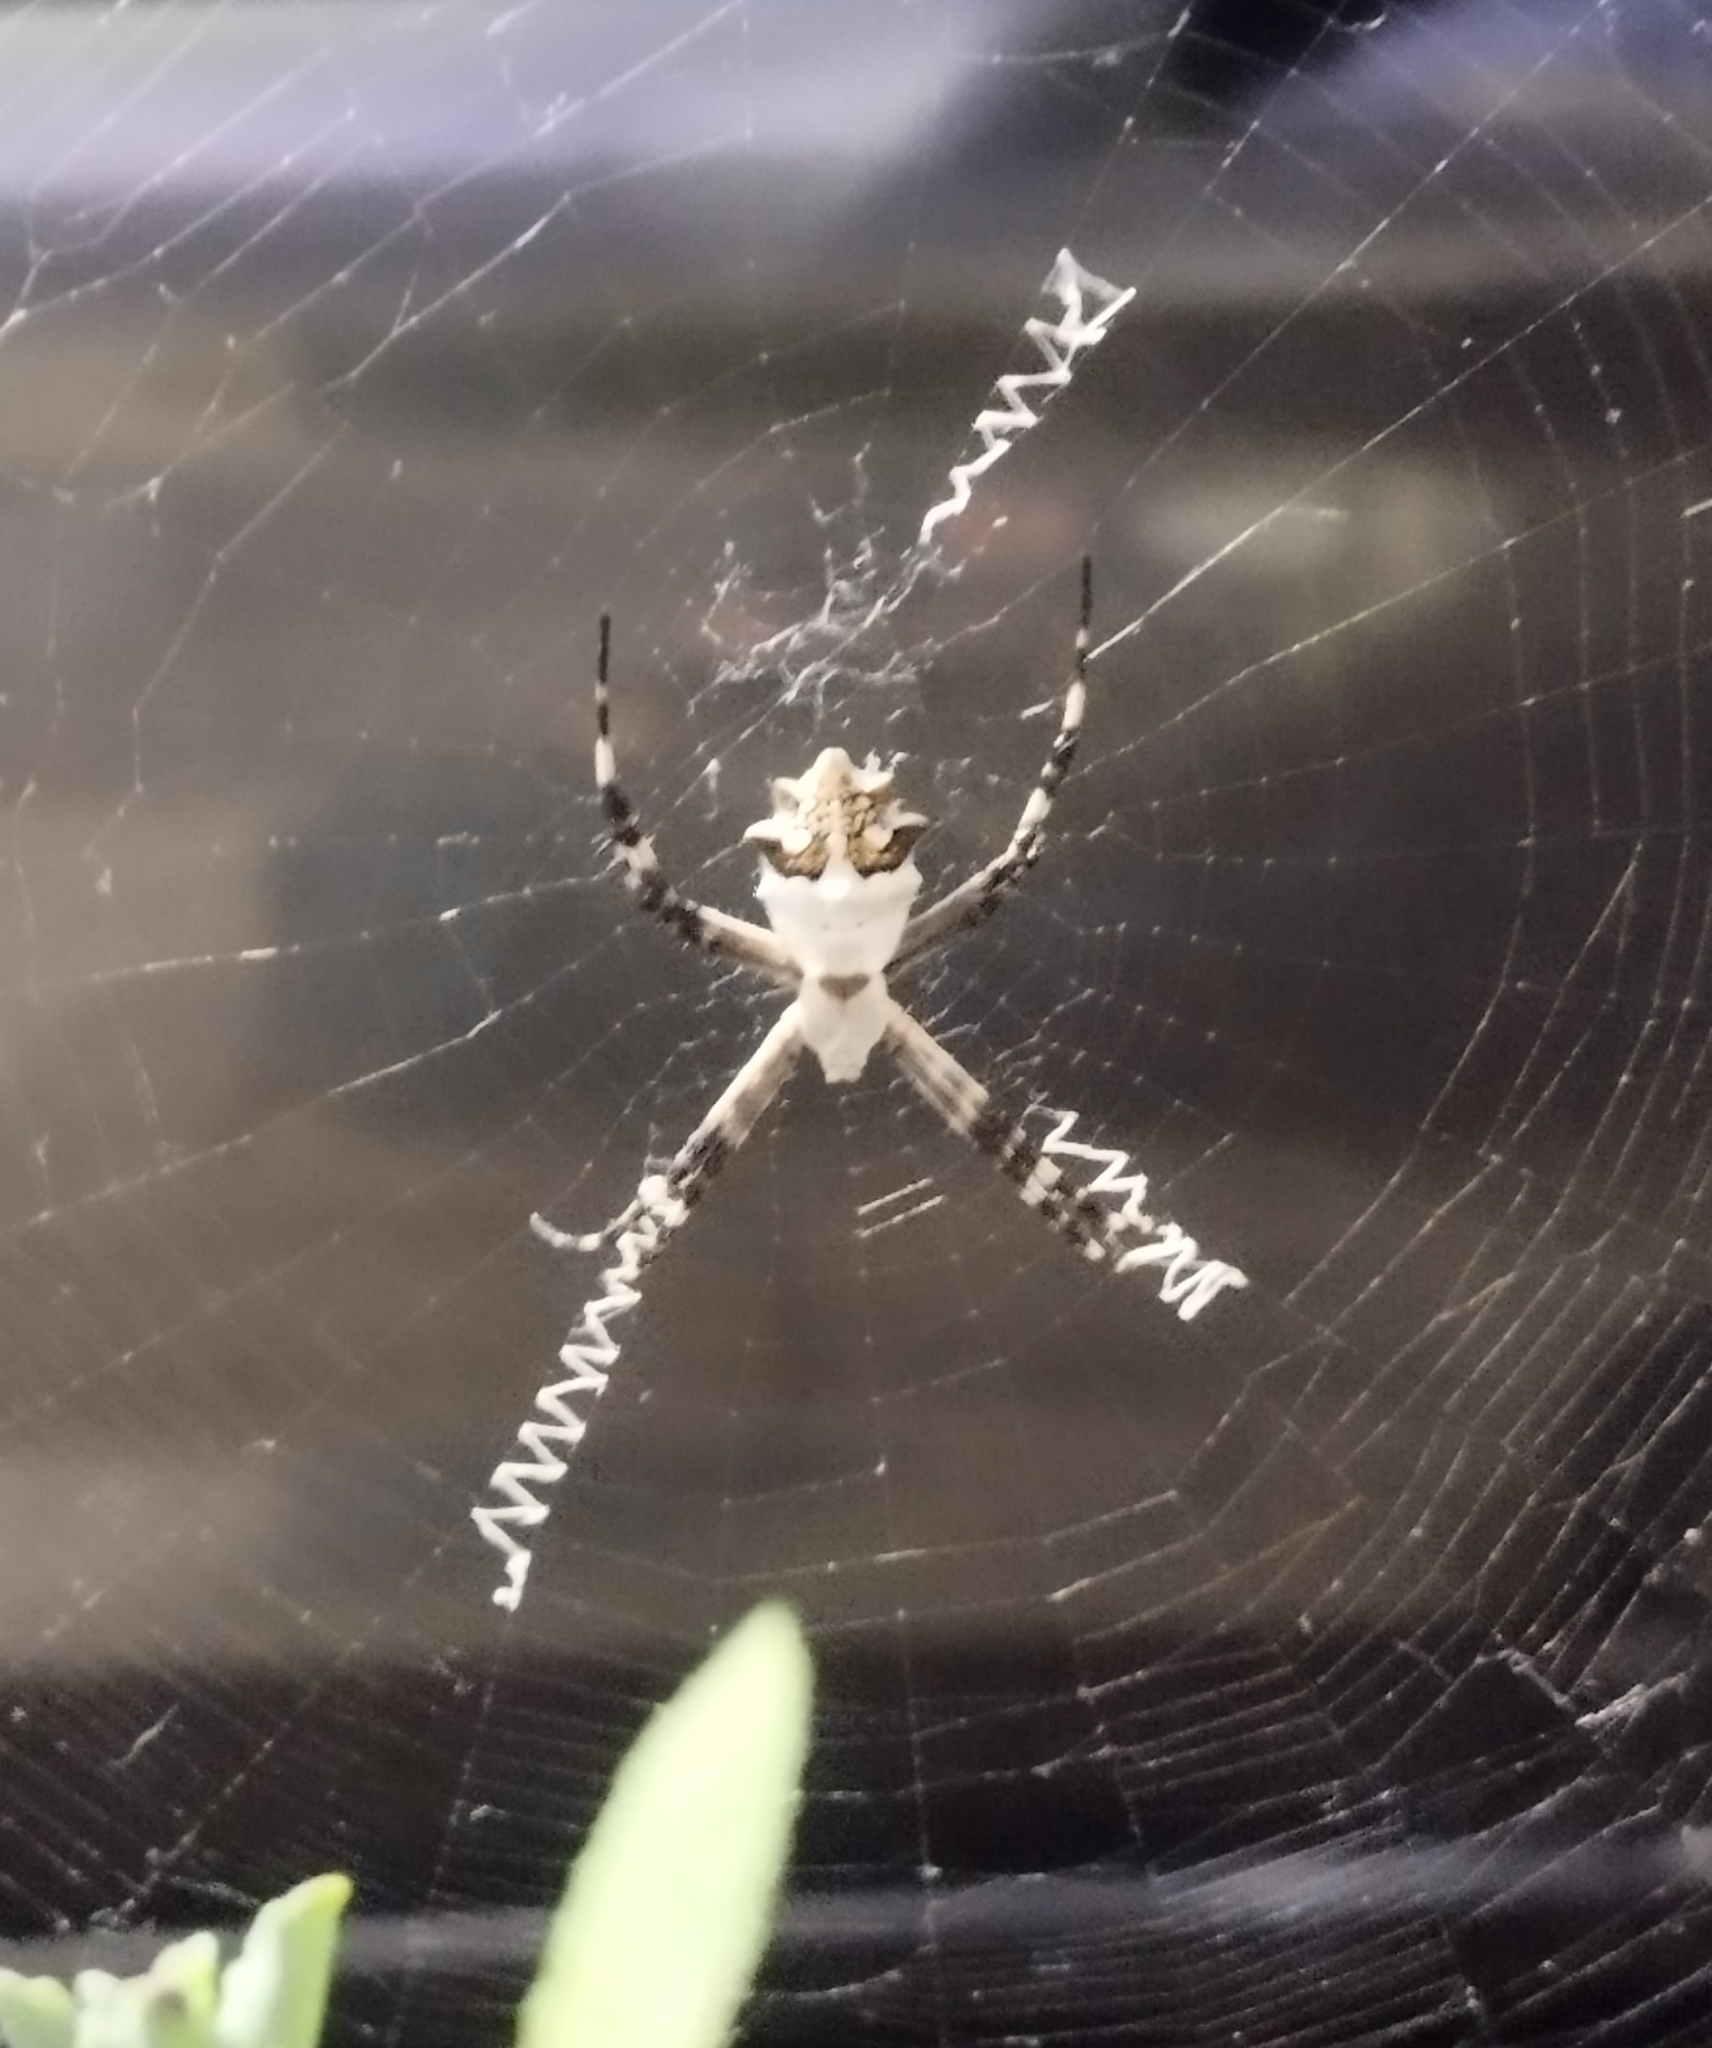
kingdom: Animalia
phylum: Arthropoda
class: Arachnida
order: Araneae
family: Araneidae
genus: Argiope
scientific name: Argiope argentata
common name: Orb weavers
